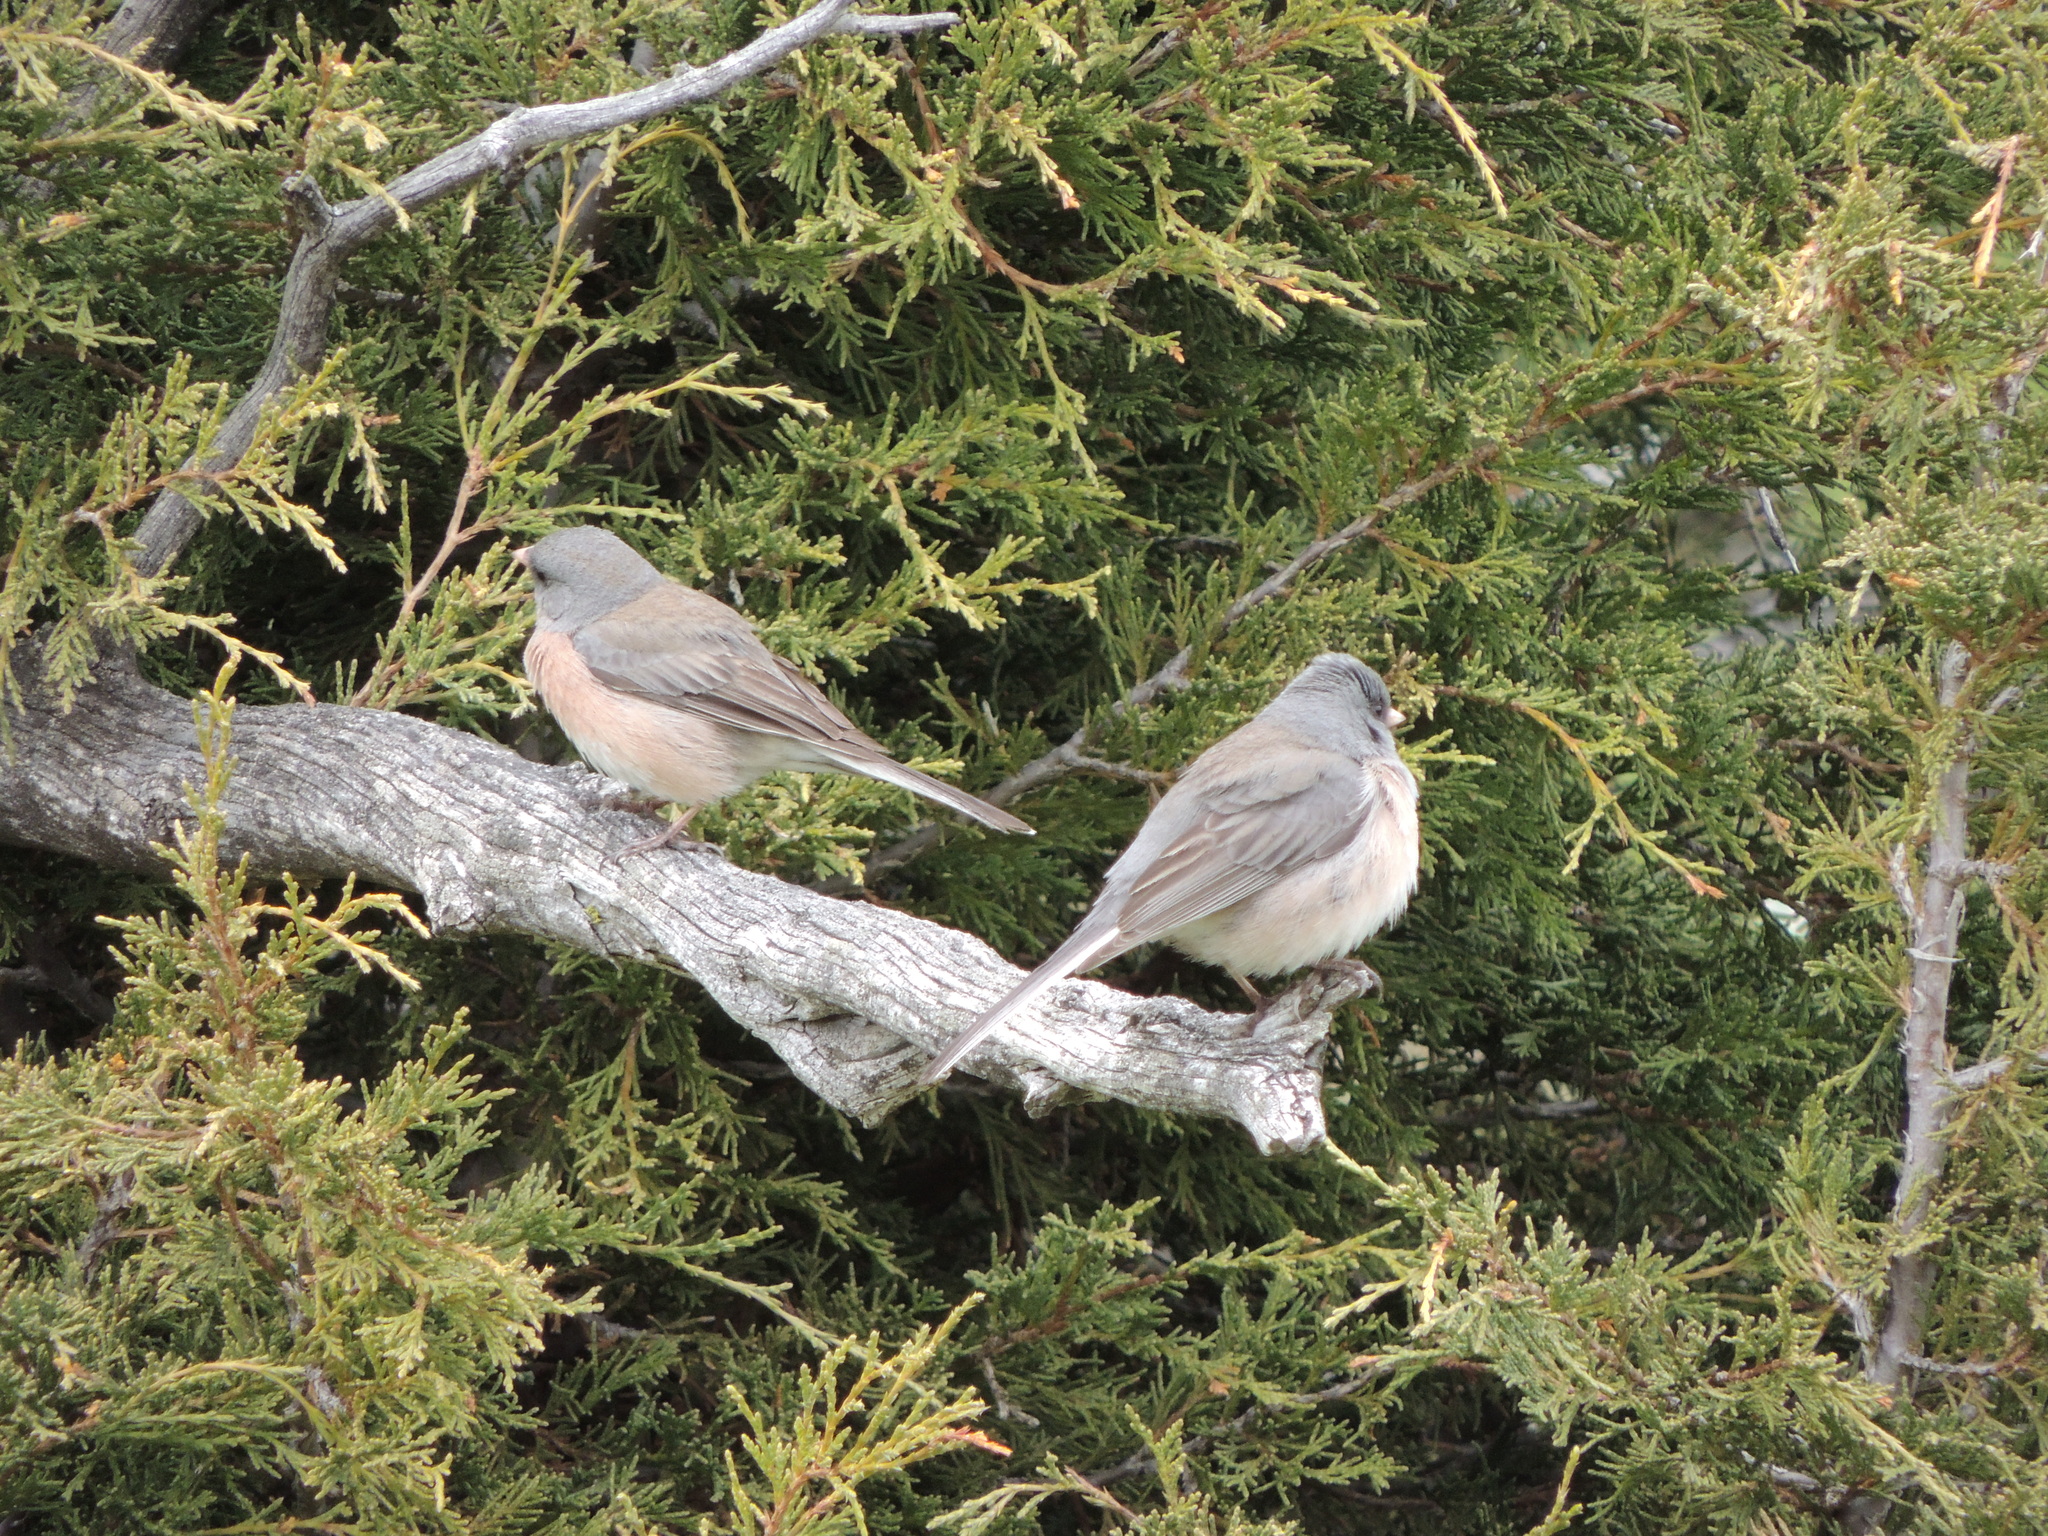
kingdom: Animalia
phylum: Chordata
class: Aves
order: Passeriformes
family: Passerellidae
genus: Junco
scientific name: Junco hyemalis
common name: Dark-eyed junco
